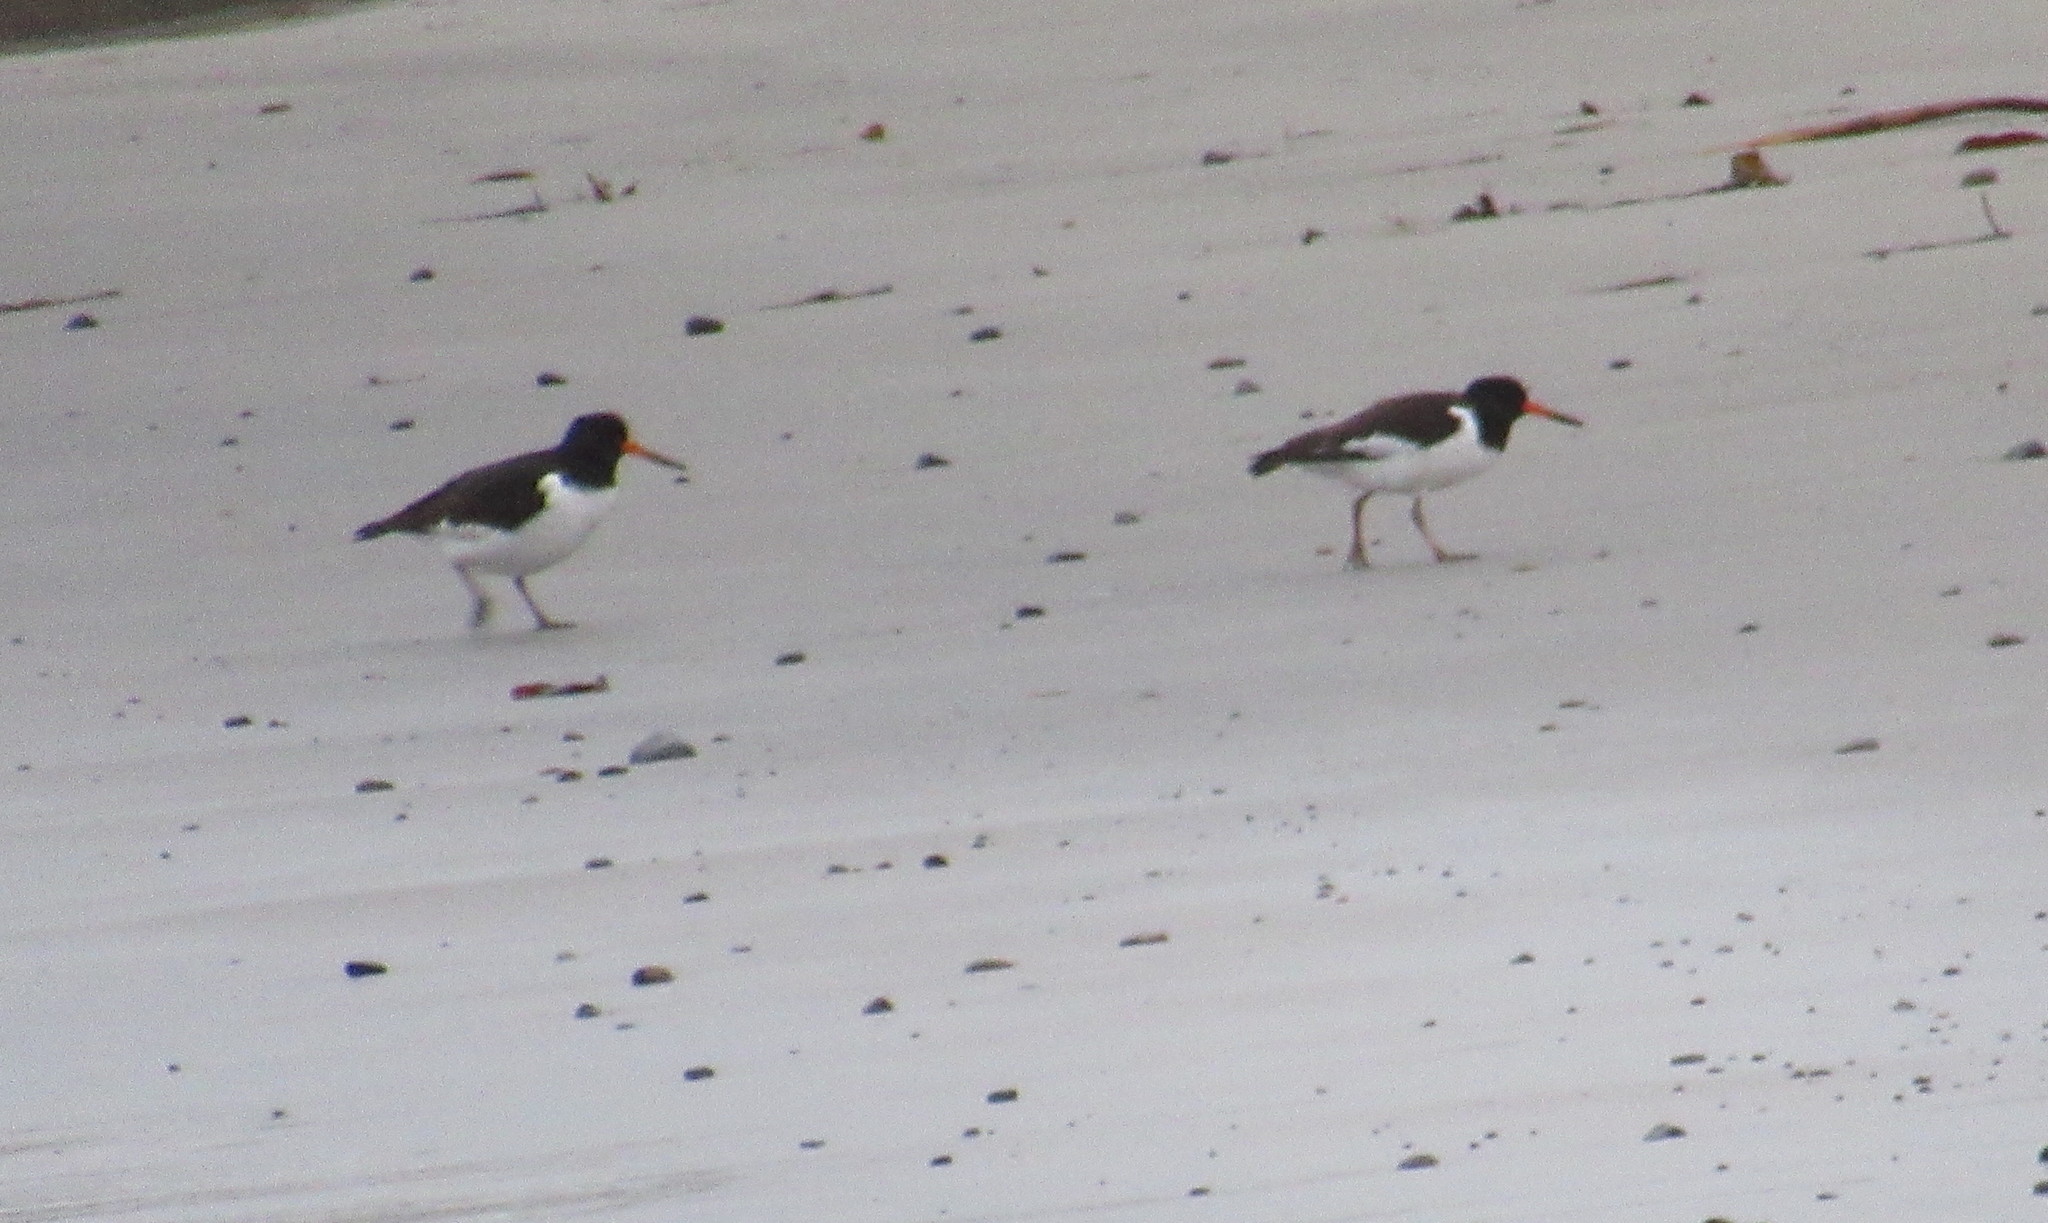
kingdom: Animalia
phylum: Chordata
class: Aves
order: Charadriiformes
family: Haematopodidae
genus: Haematopus
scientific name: Haematopus ostralegus
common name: Eurasian oystercatcher
